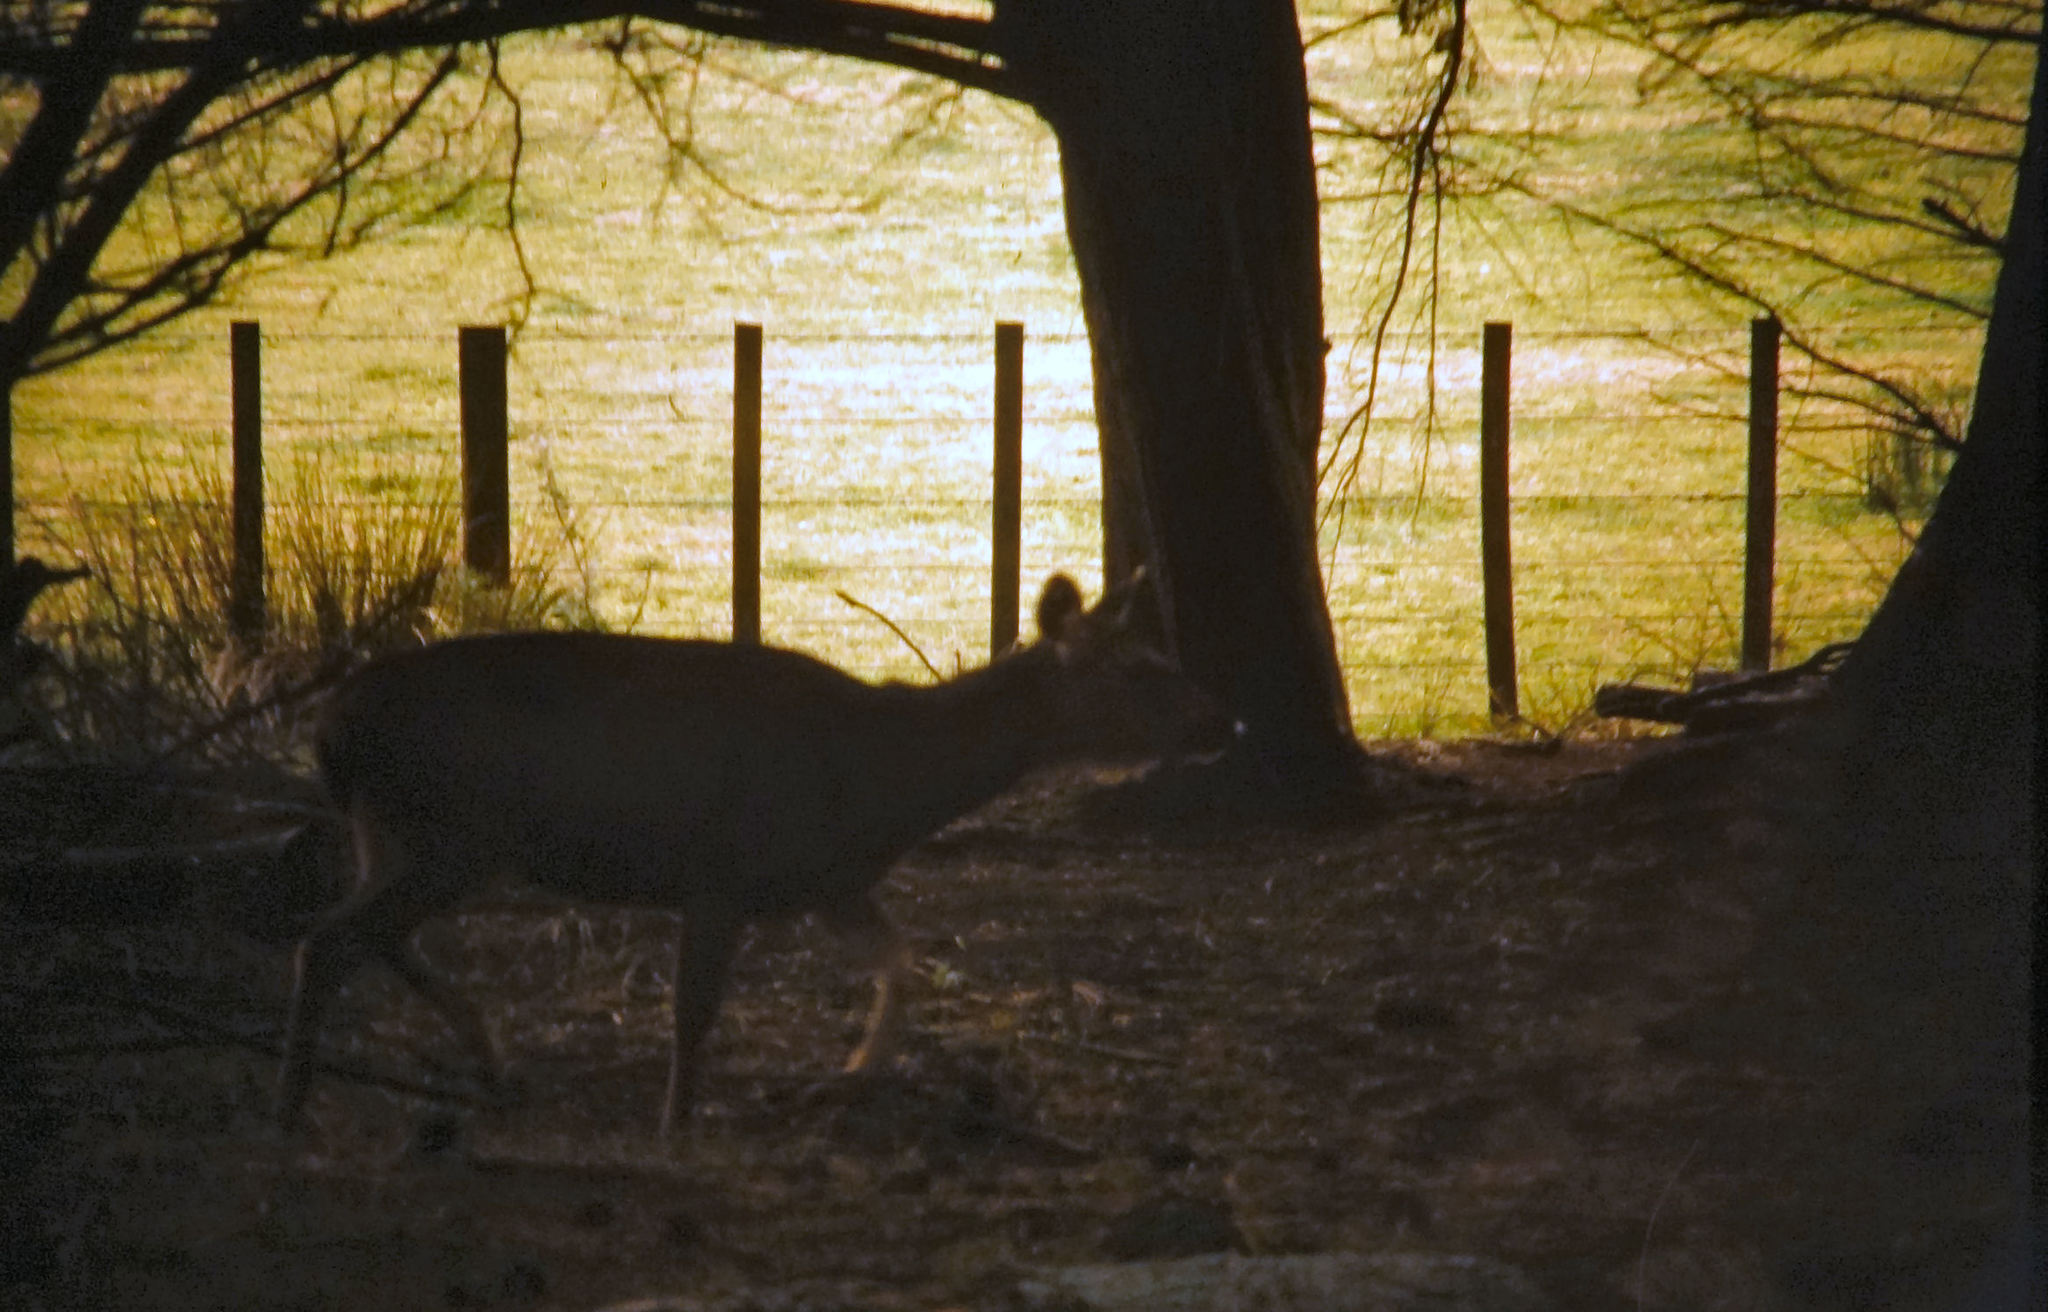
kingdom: Animalia
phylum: Chordata
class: Mammalia
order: Artiodactyla
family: Cervidae
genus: Rusa
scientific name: Rusa unicolor
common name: Sambar
